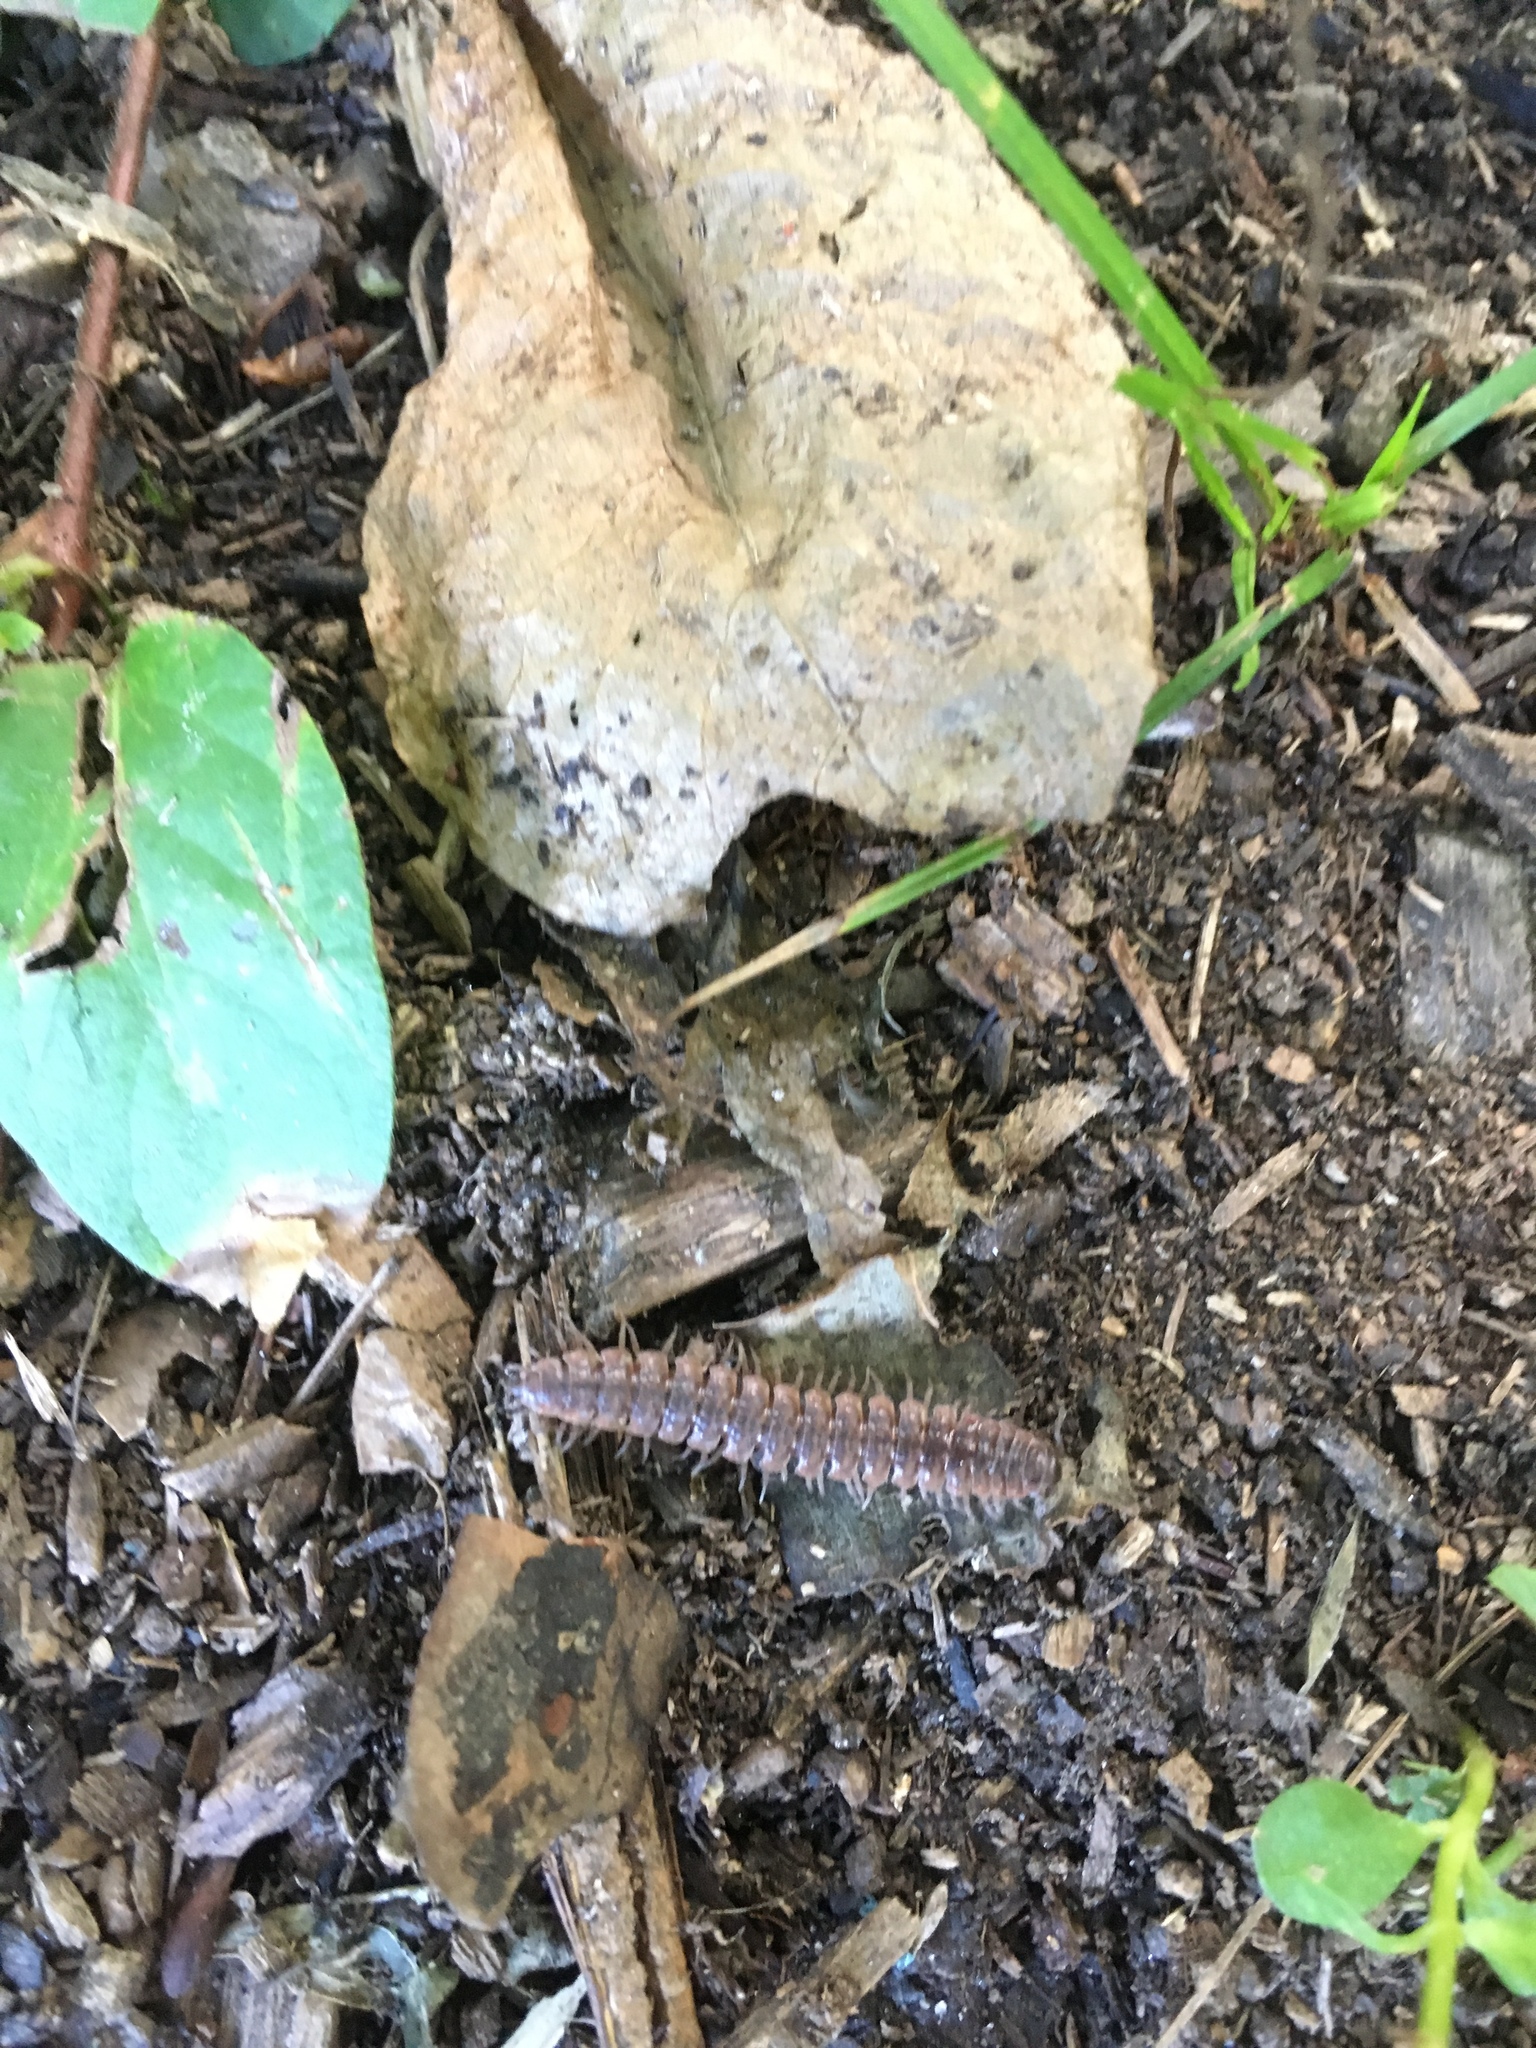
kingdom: Animalia
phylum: Arthropoda
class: Diplopoda
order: Polydesmida
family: Polydesmidae
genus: Pseudopolydesmus
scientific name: Pseudopolydesmus serratus
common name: Common pink flat-back millipede
